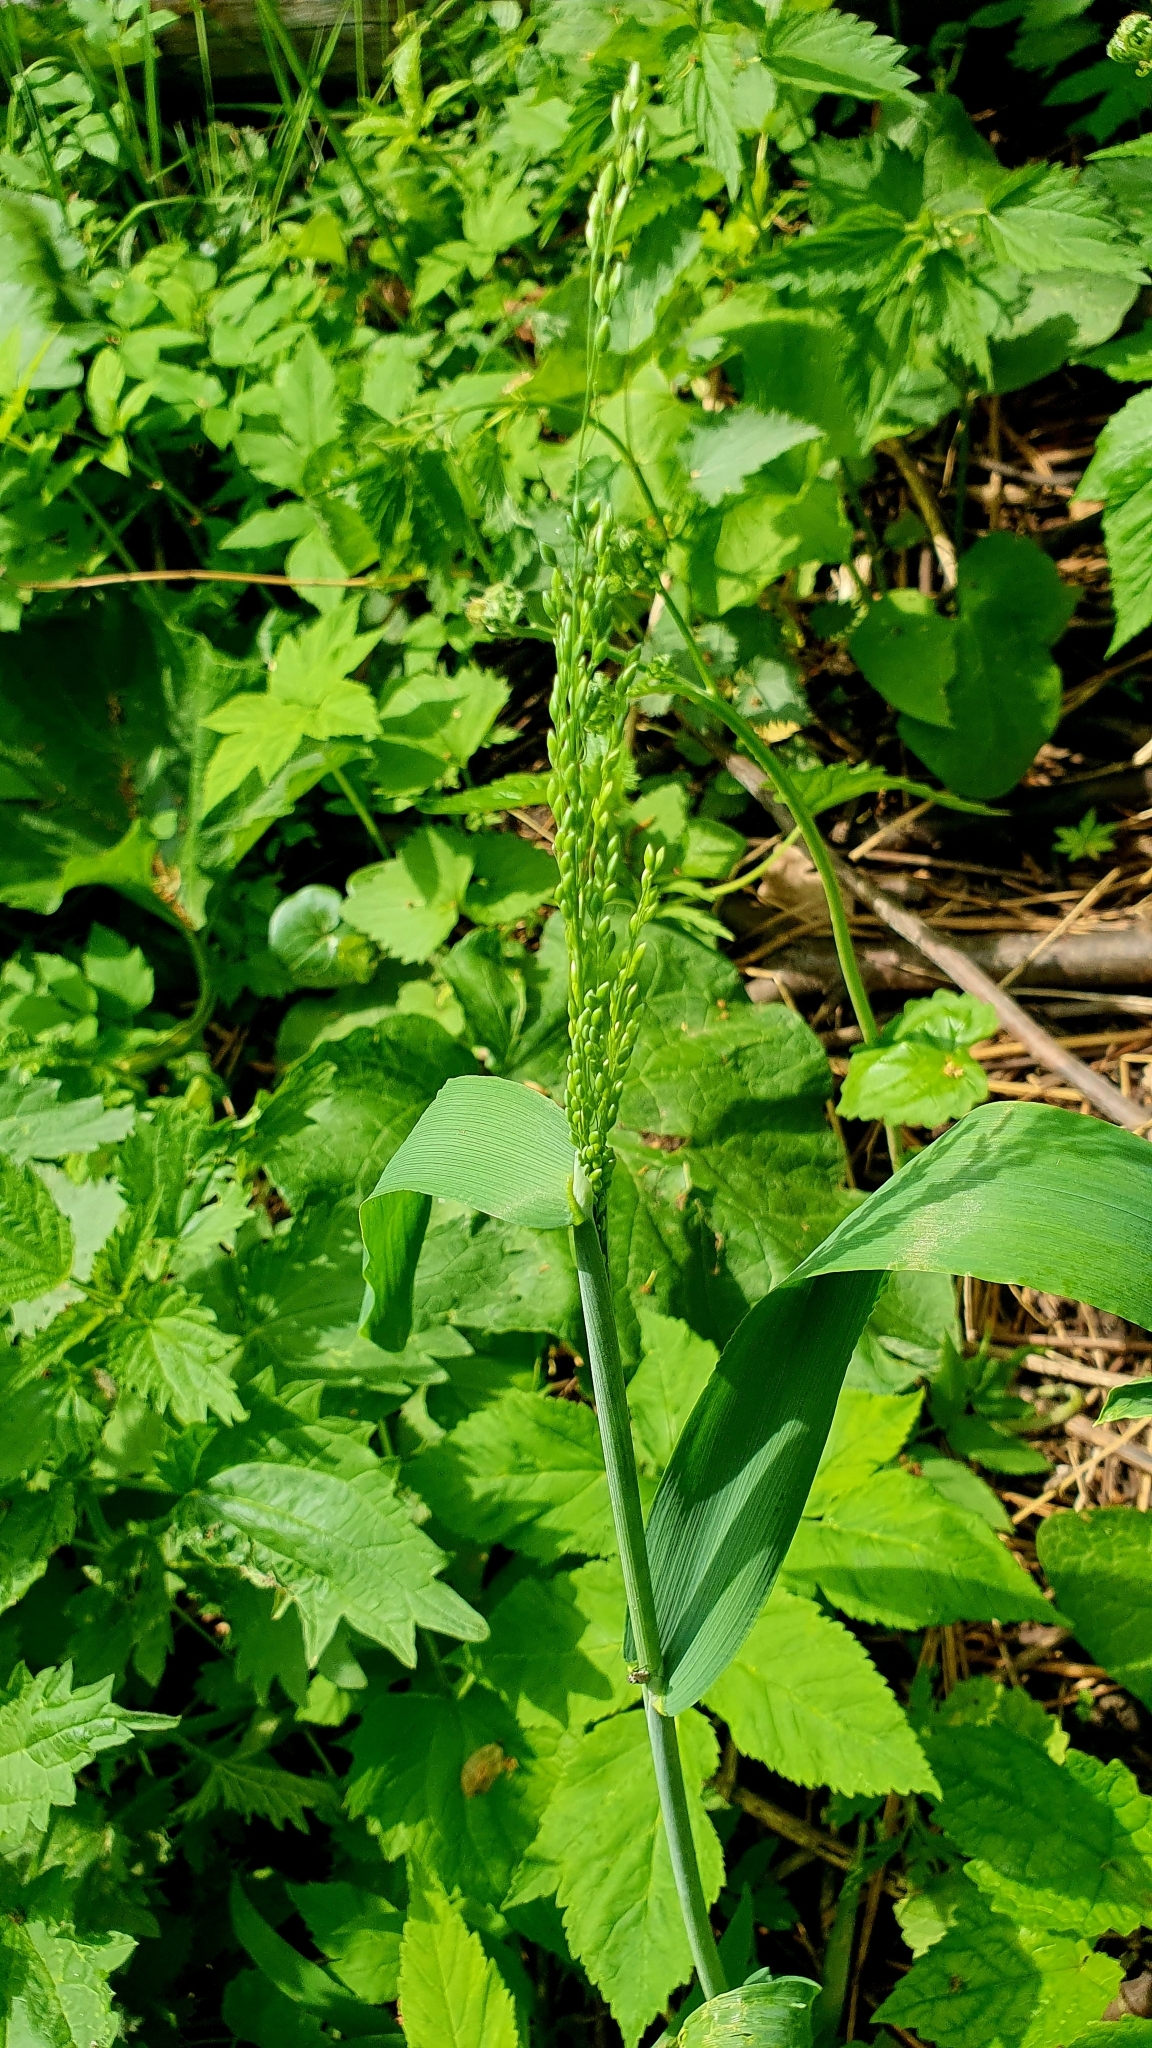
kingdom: Plantae
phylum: Tracheophyta
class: Liliopsida
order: Poales
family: Poaceae
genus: Milium
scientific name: Milium effusum
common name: Wood millet
